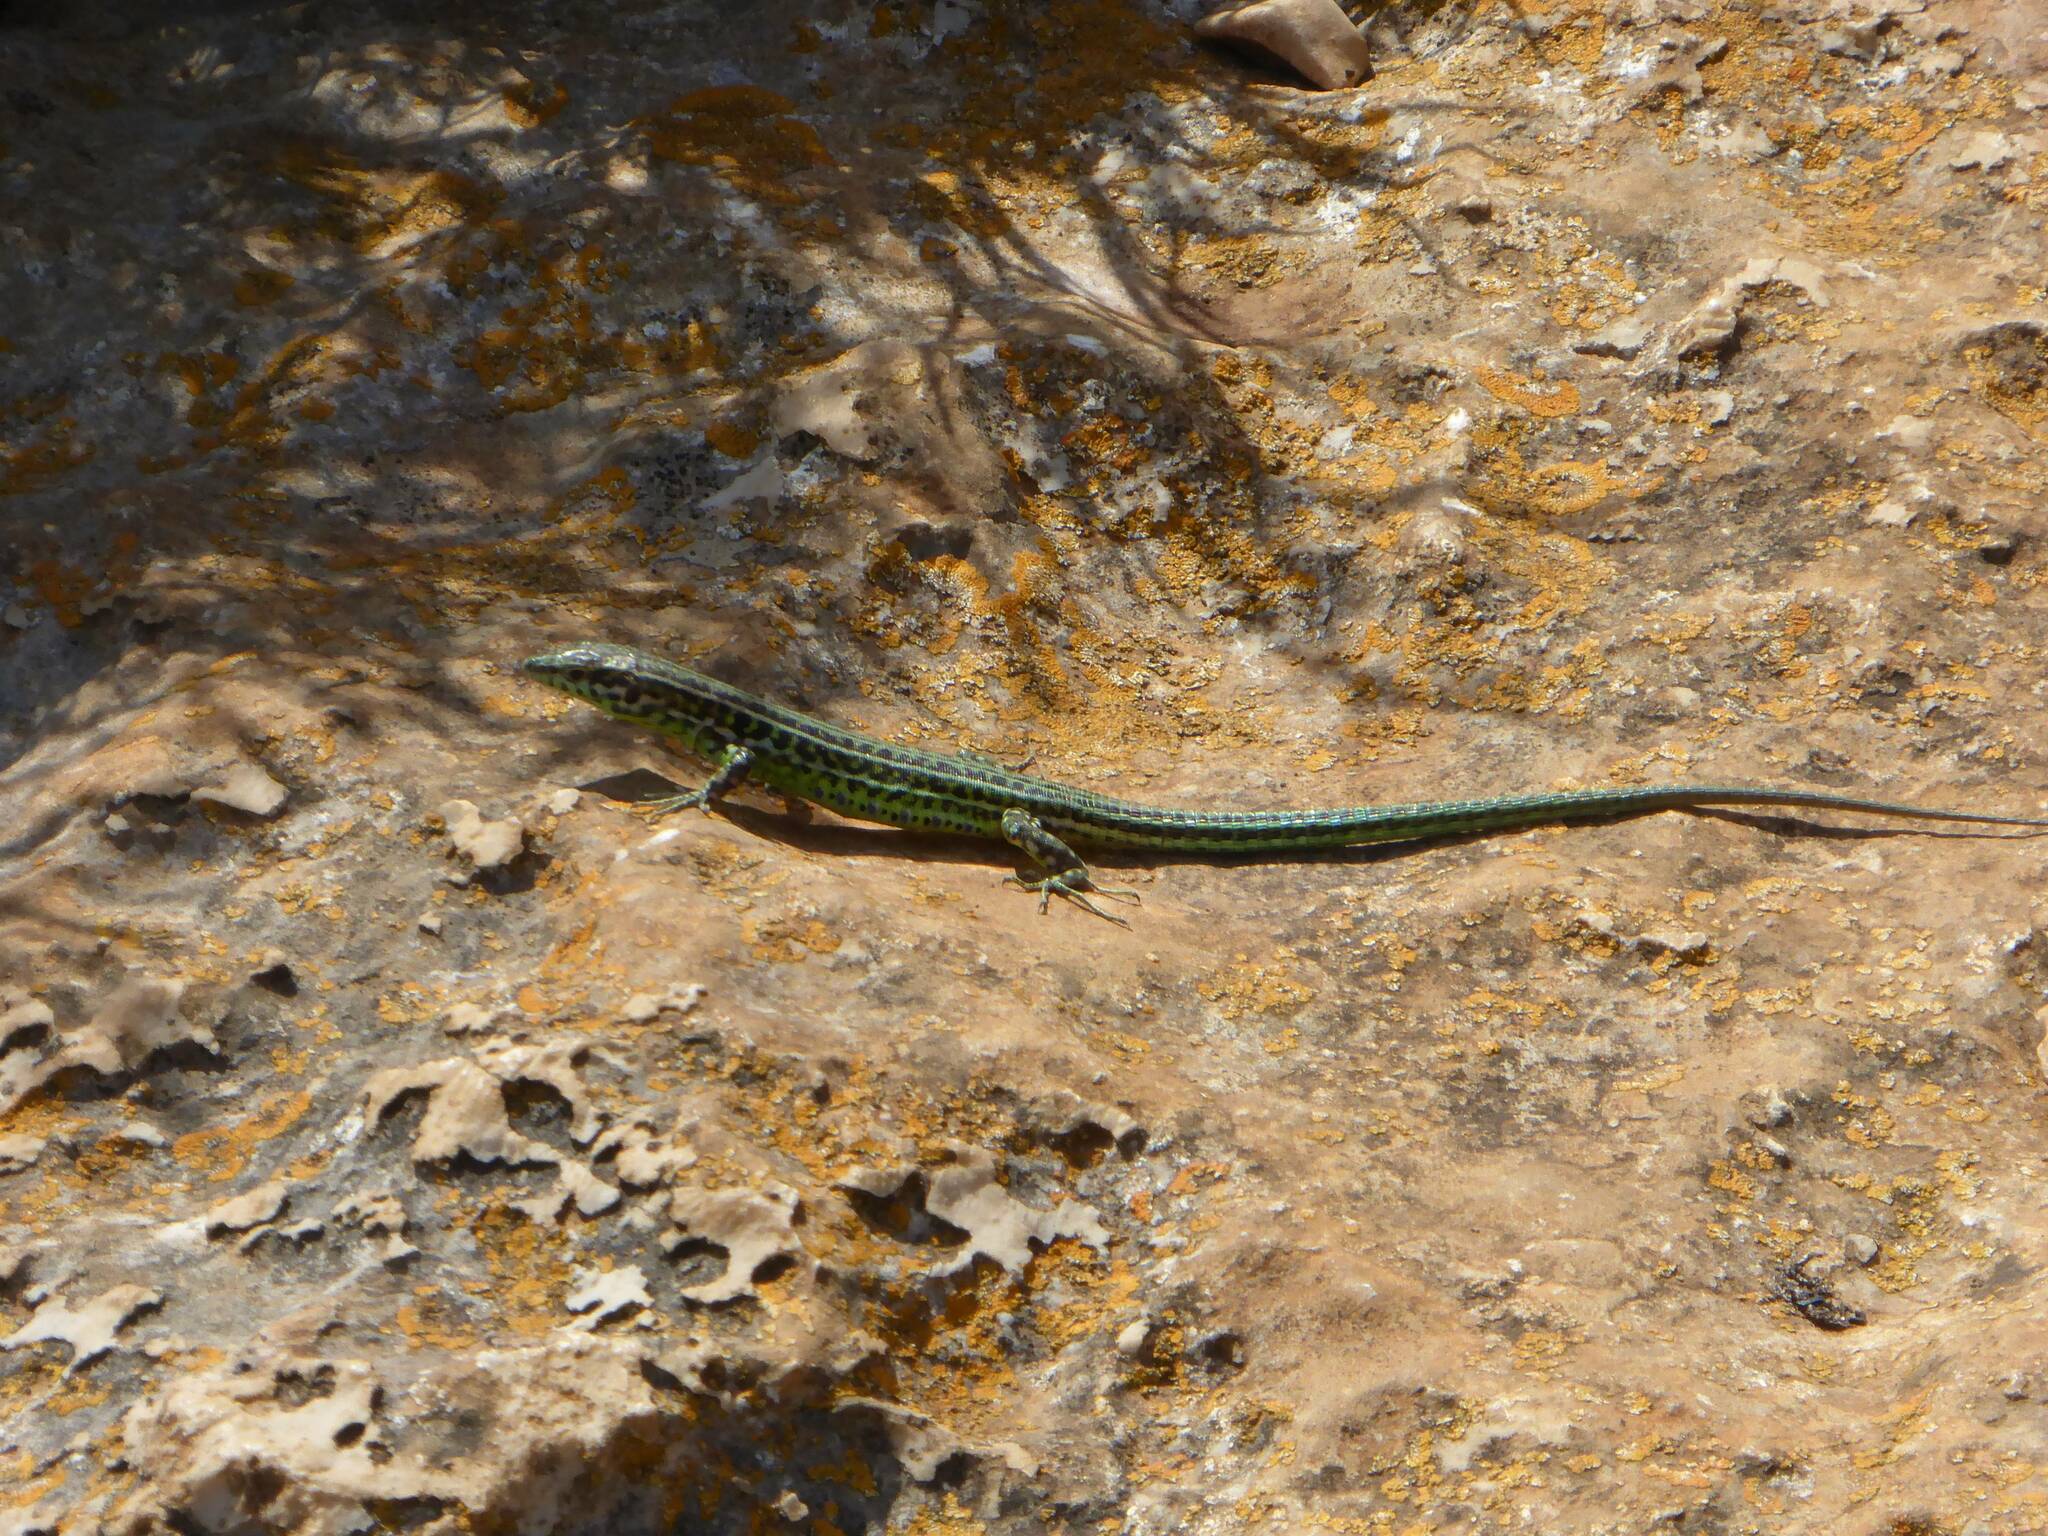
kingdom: Animalia
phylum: Chordata
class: Squamata
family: Lacertidae
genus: Podarcis
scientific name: Podarcis tiliguerta
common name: Tyrrhenian wall lizard
